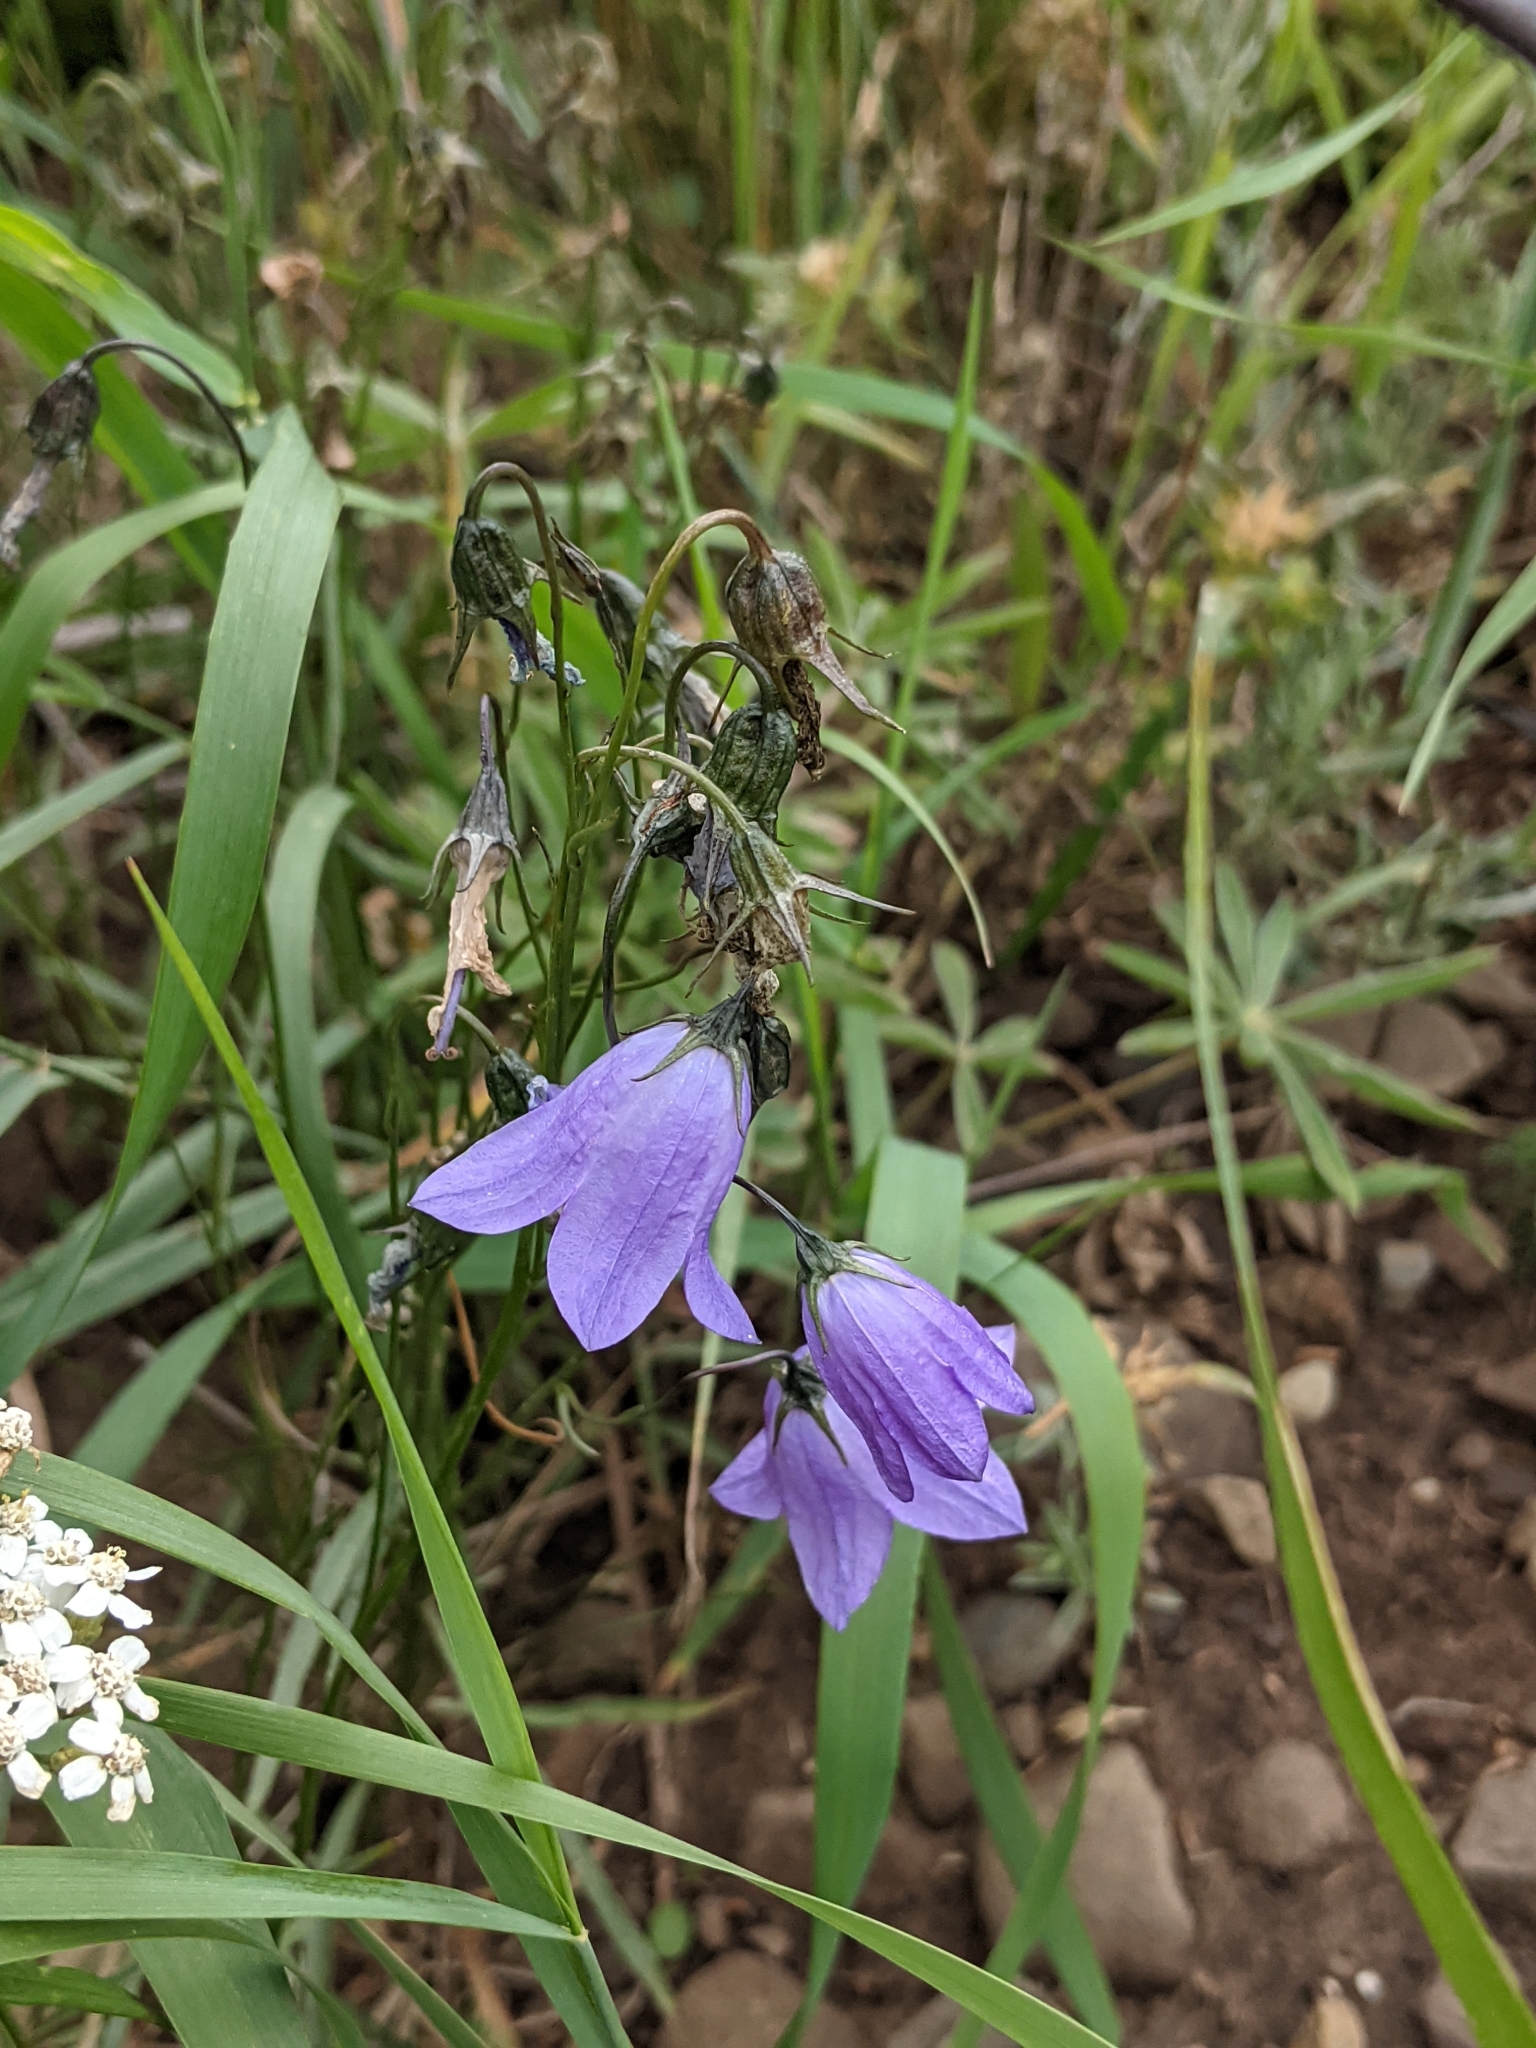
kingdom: Plantae
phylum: Tracheophyta
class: Magnoliopsida
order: Asterales
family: Campanulaceae
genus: Campanula
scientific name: Campanula petiolata
